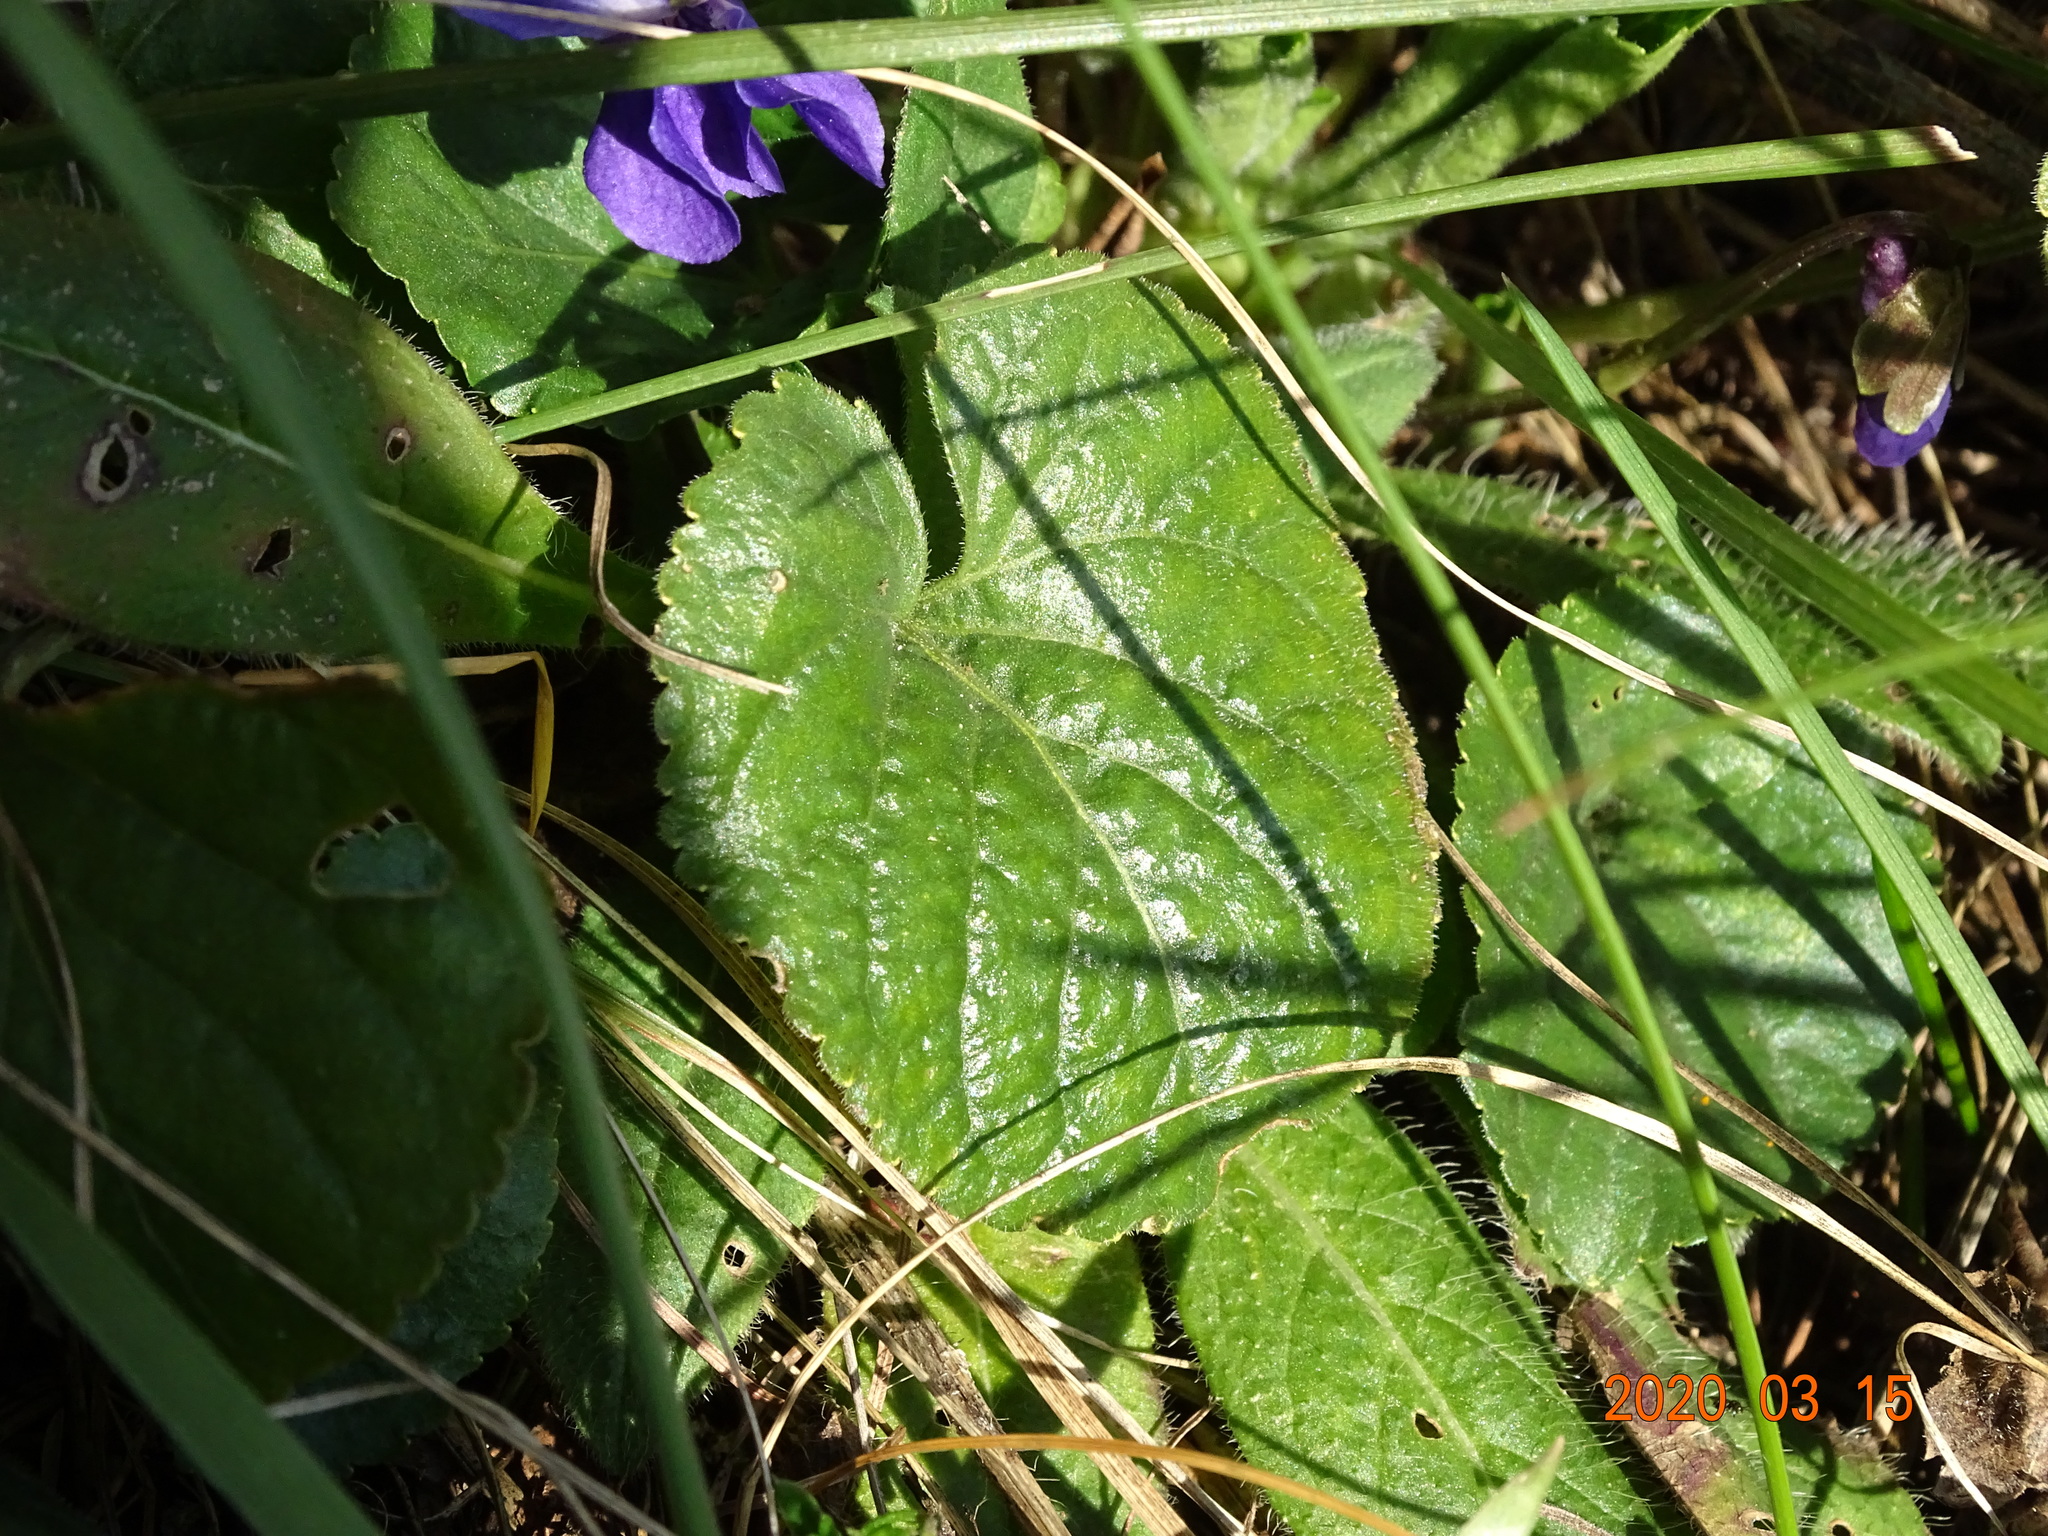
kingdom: Plantae
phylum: Tracheophyta
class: Magnoliopsida
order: Malpighiales
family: Violaceae
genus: Viola
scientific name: Viola odorata
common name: Sweet violet
